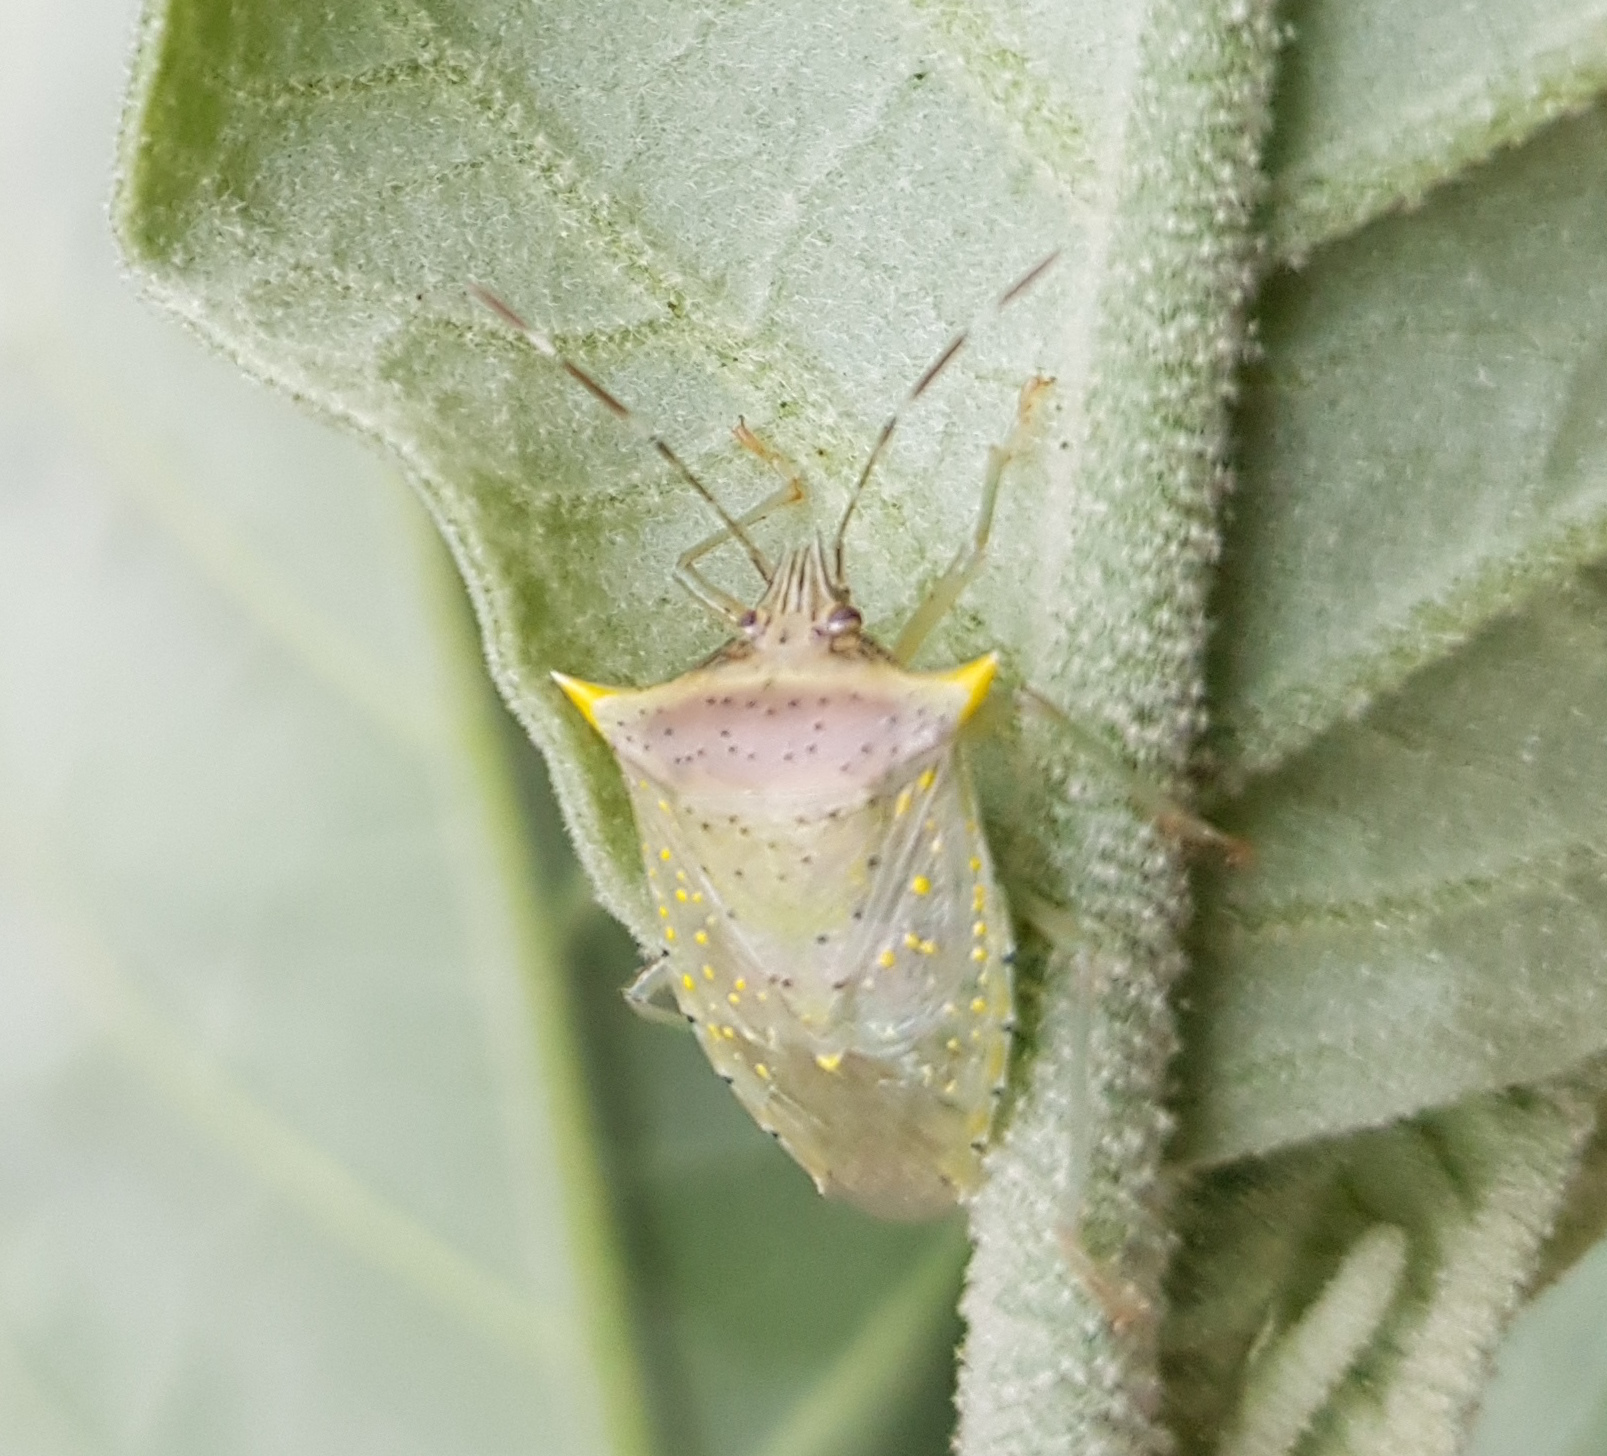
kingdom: Animalia
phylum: Arthropoda
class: Insecta
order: Hemiptera
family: Pentatomidae
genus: Arvelius
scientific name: Arvelius albopunctatus
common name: Tomato stink bug
